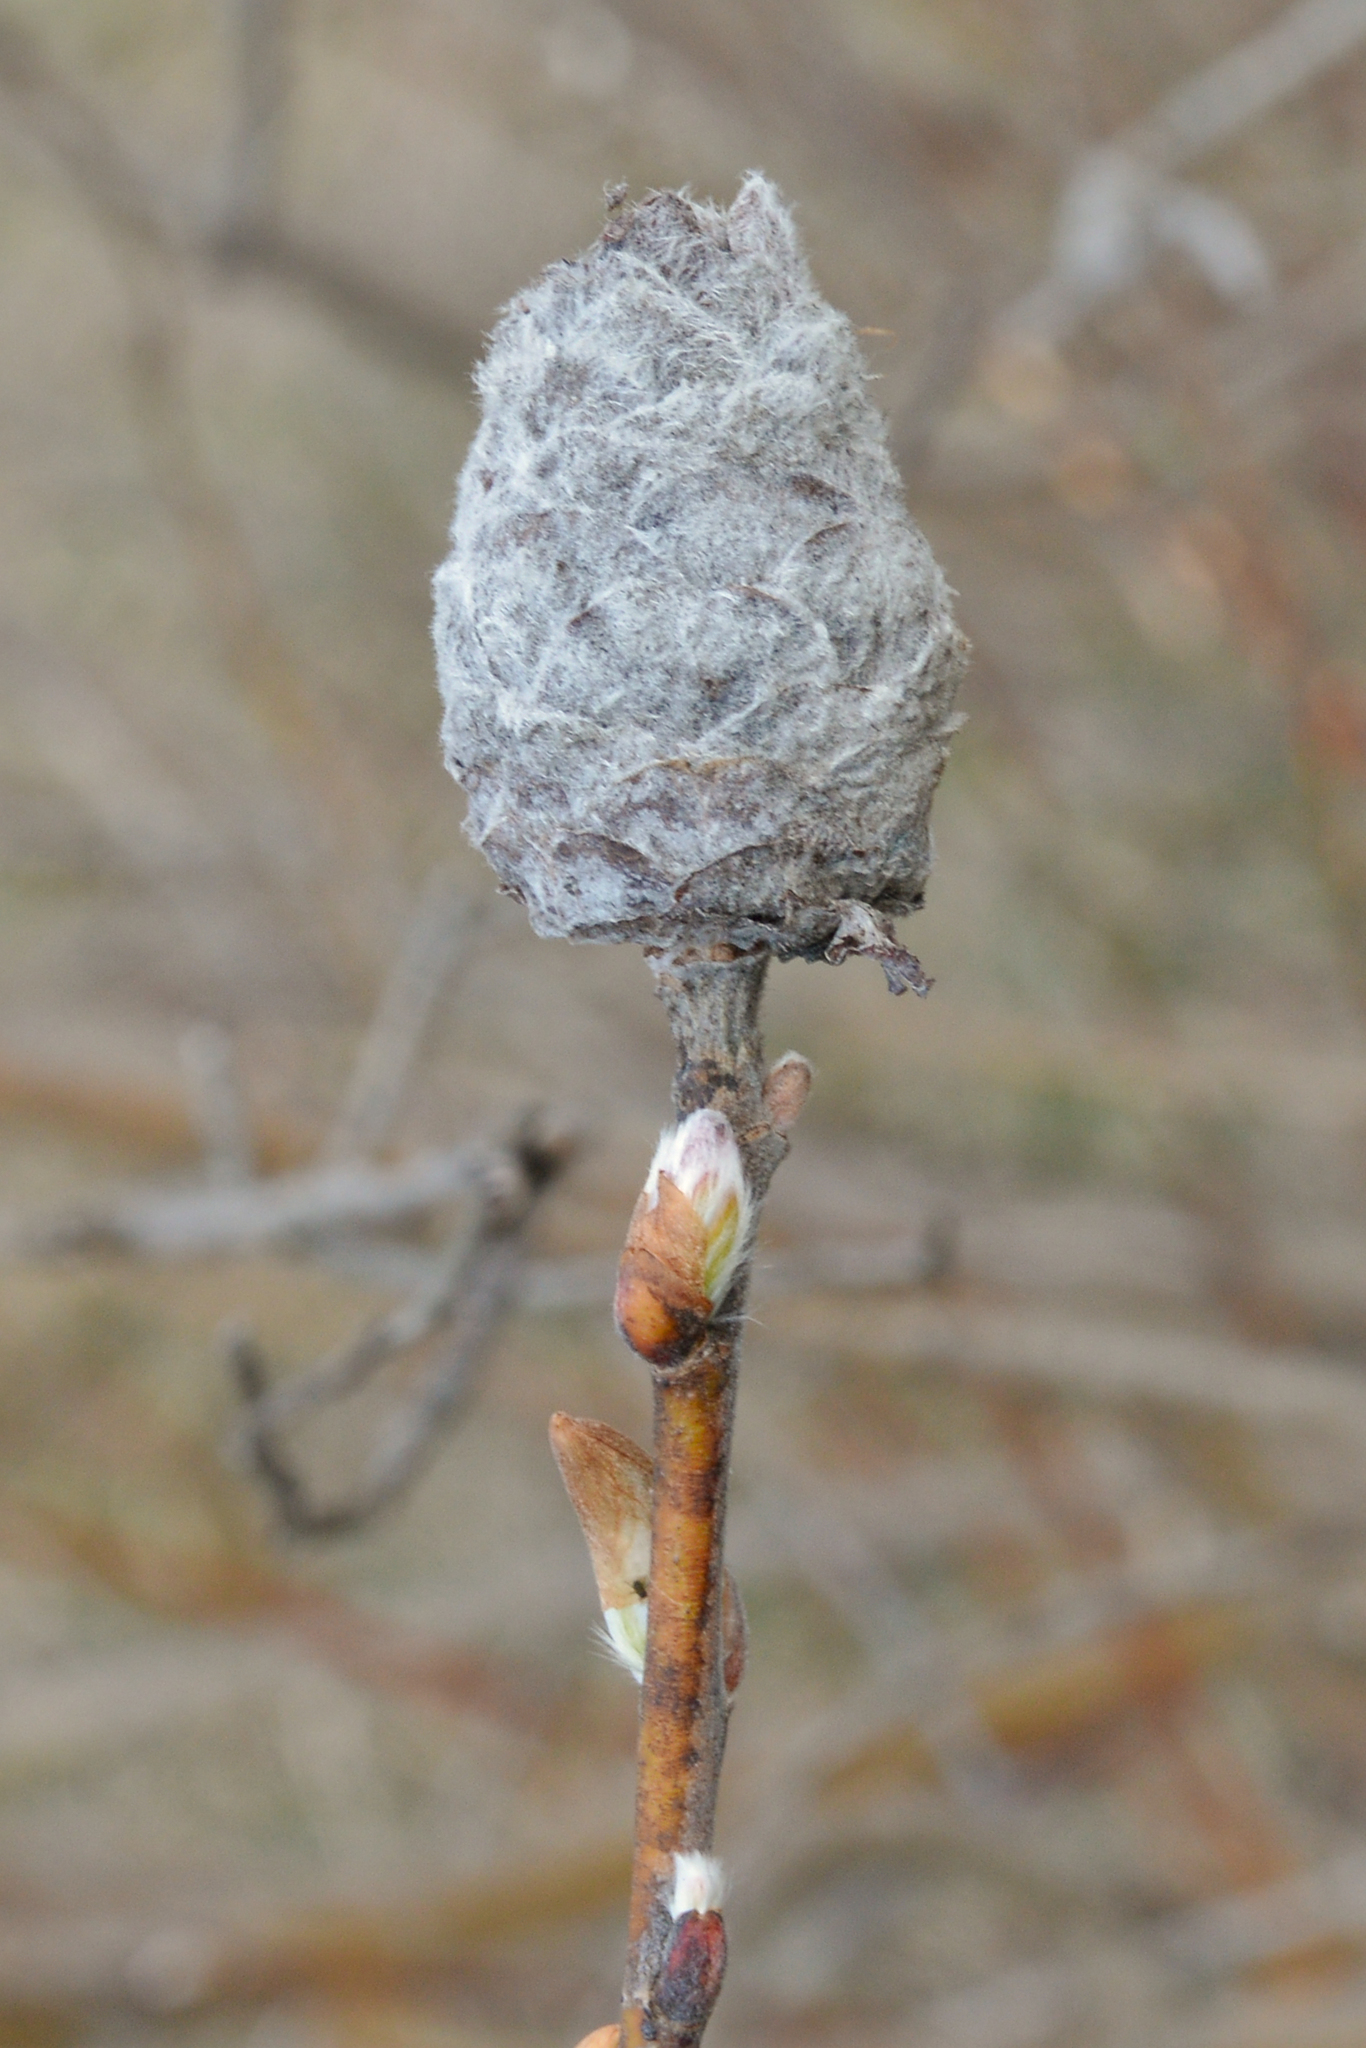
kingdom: Animalia
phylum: Arthropoda
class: Insecta
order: Diptera
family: Cecidomyiidae
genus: Rabdophaga
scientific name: Rabdophaga strobiloides
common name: Willow pinecone gall midge
